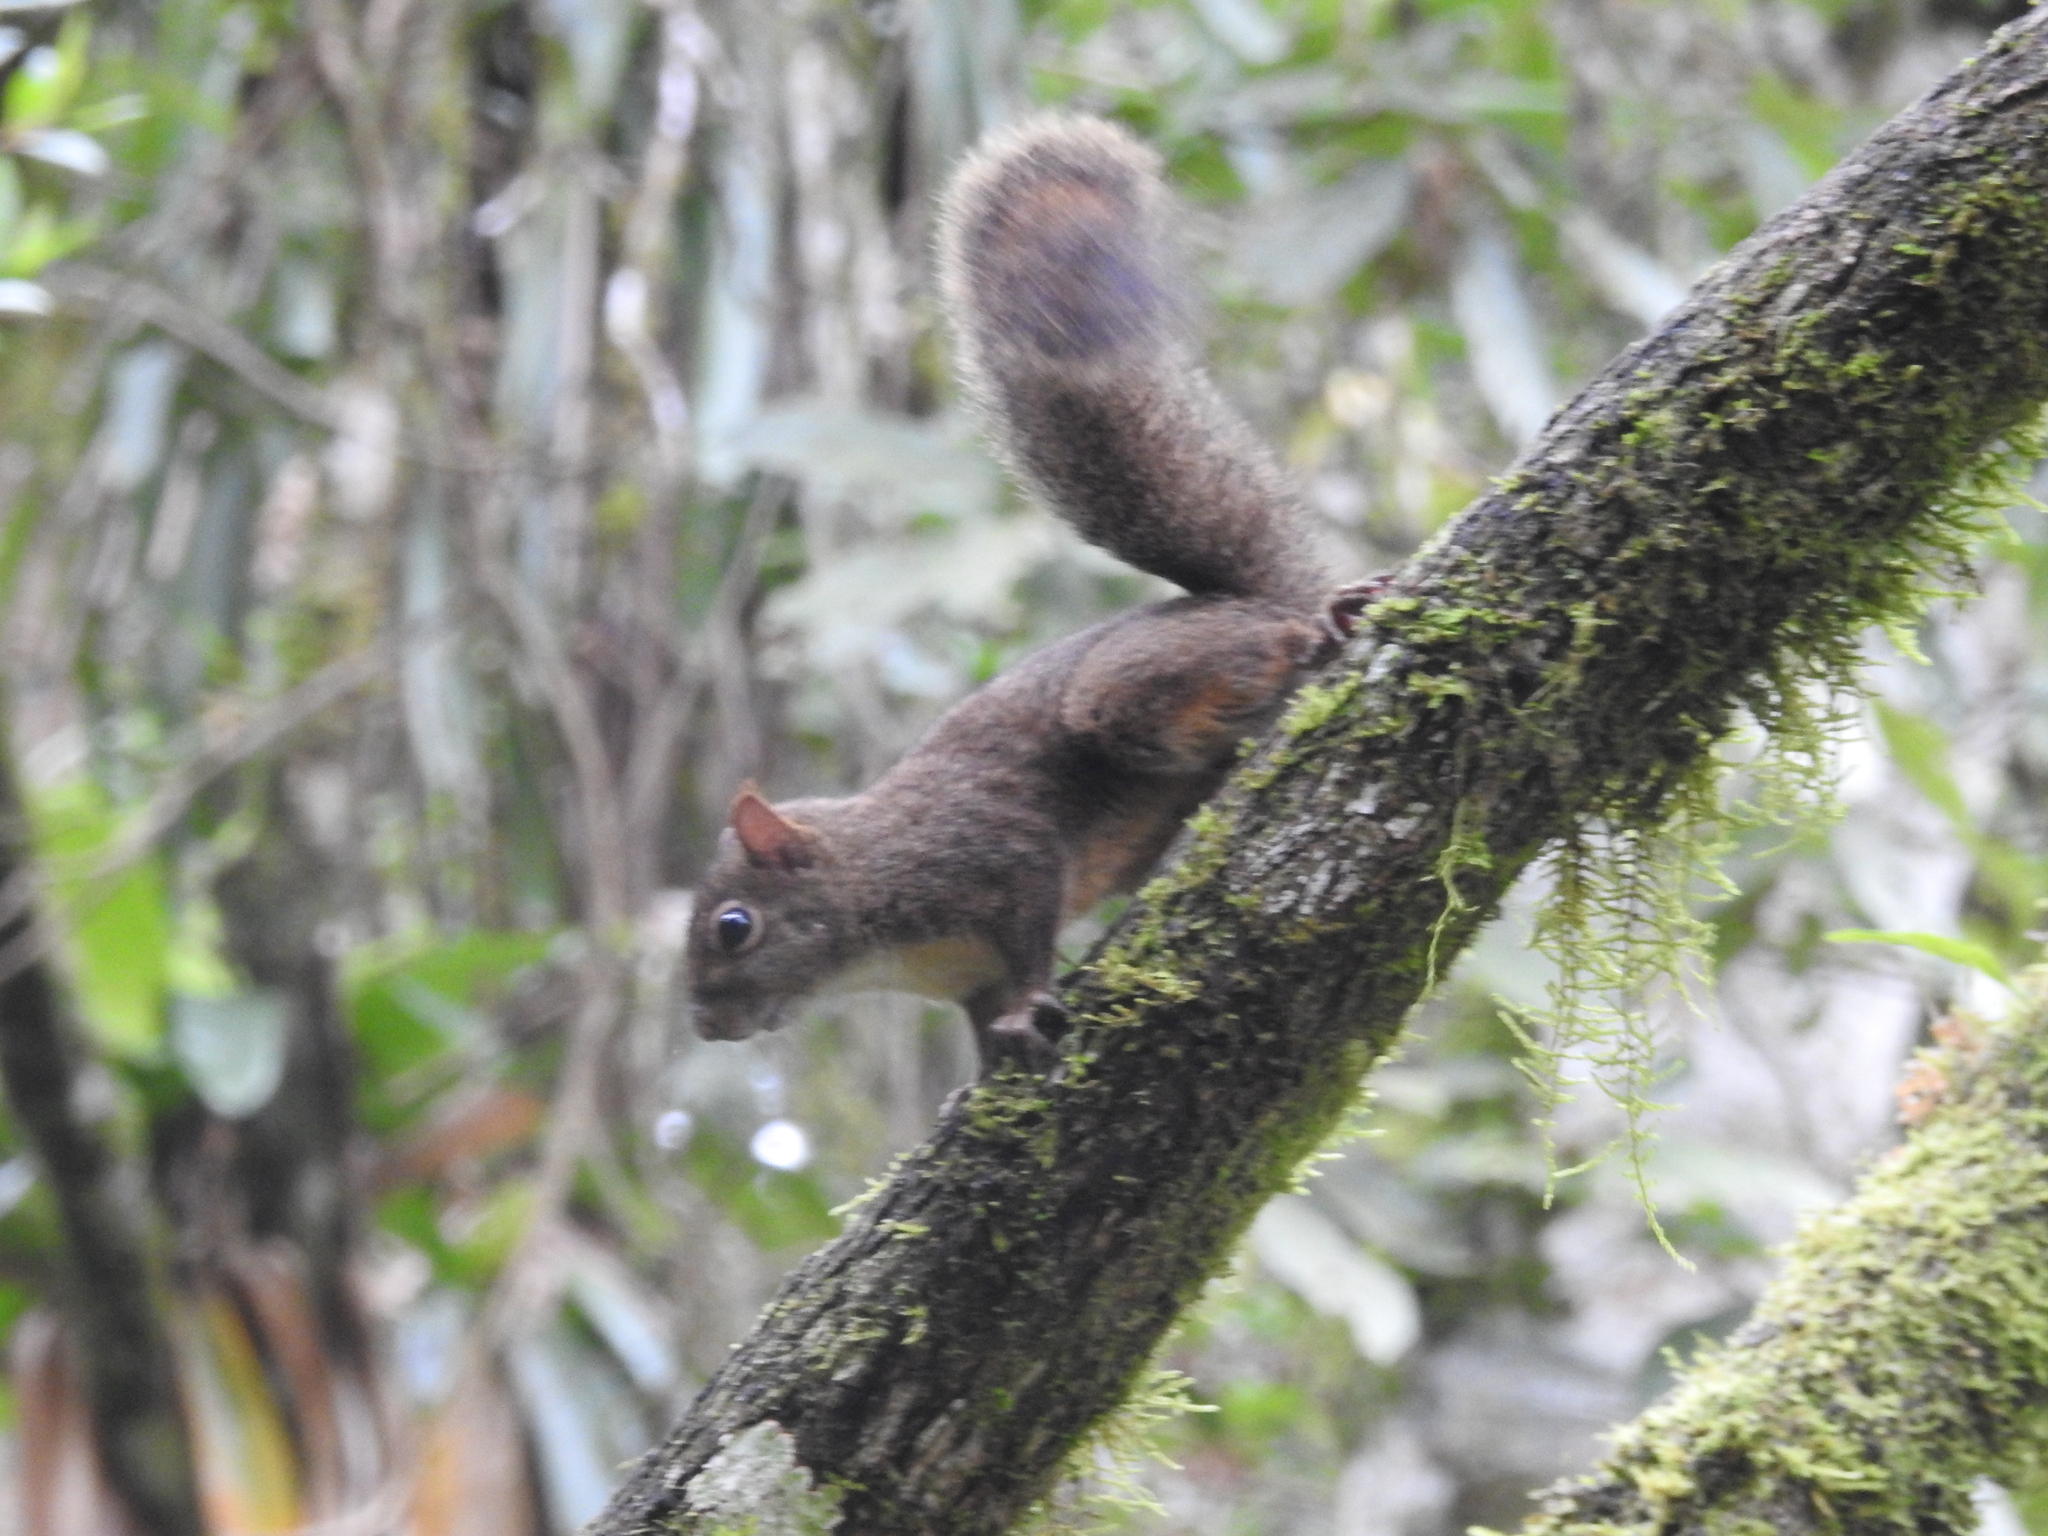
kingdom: Animalia
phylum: Chordata
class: Mammalia
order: Rodentia
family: Sciuridae
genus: Sciurus
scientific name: Sciurus aestuans
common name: Guianan squirrel
